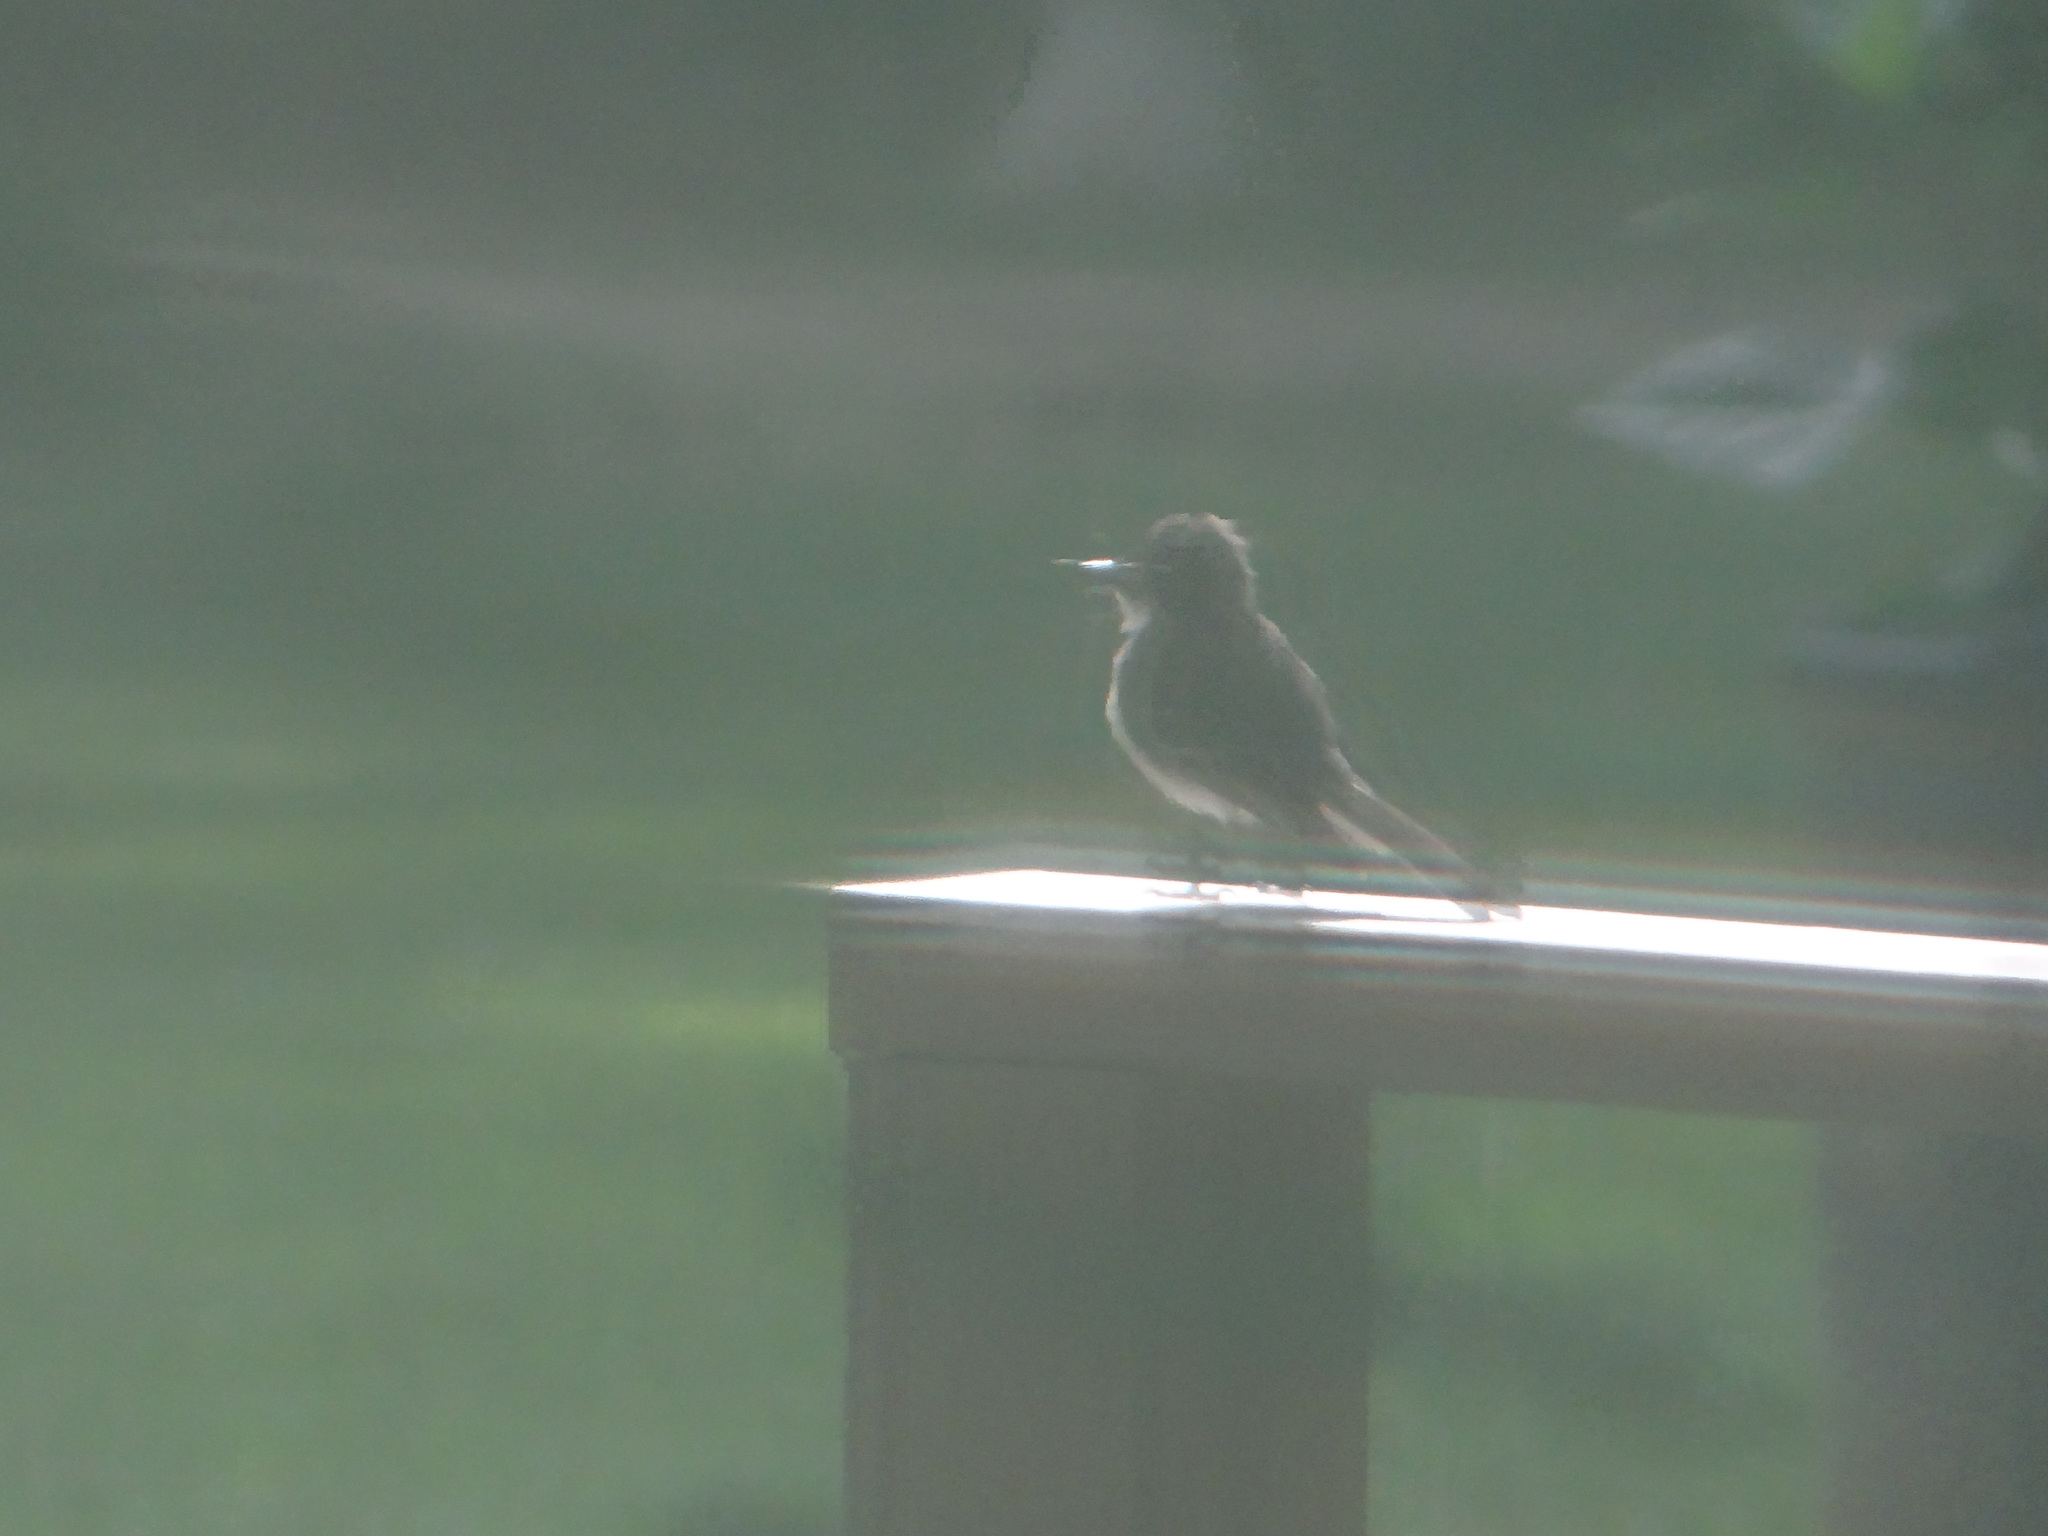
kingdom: Animalia
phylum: Chordata
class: Aves
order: Passeriformes
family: Tyrannidae
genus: Tyrannus
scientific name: Tyrannus tyrannus
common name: Eastern kingbird
